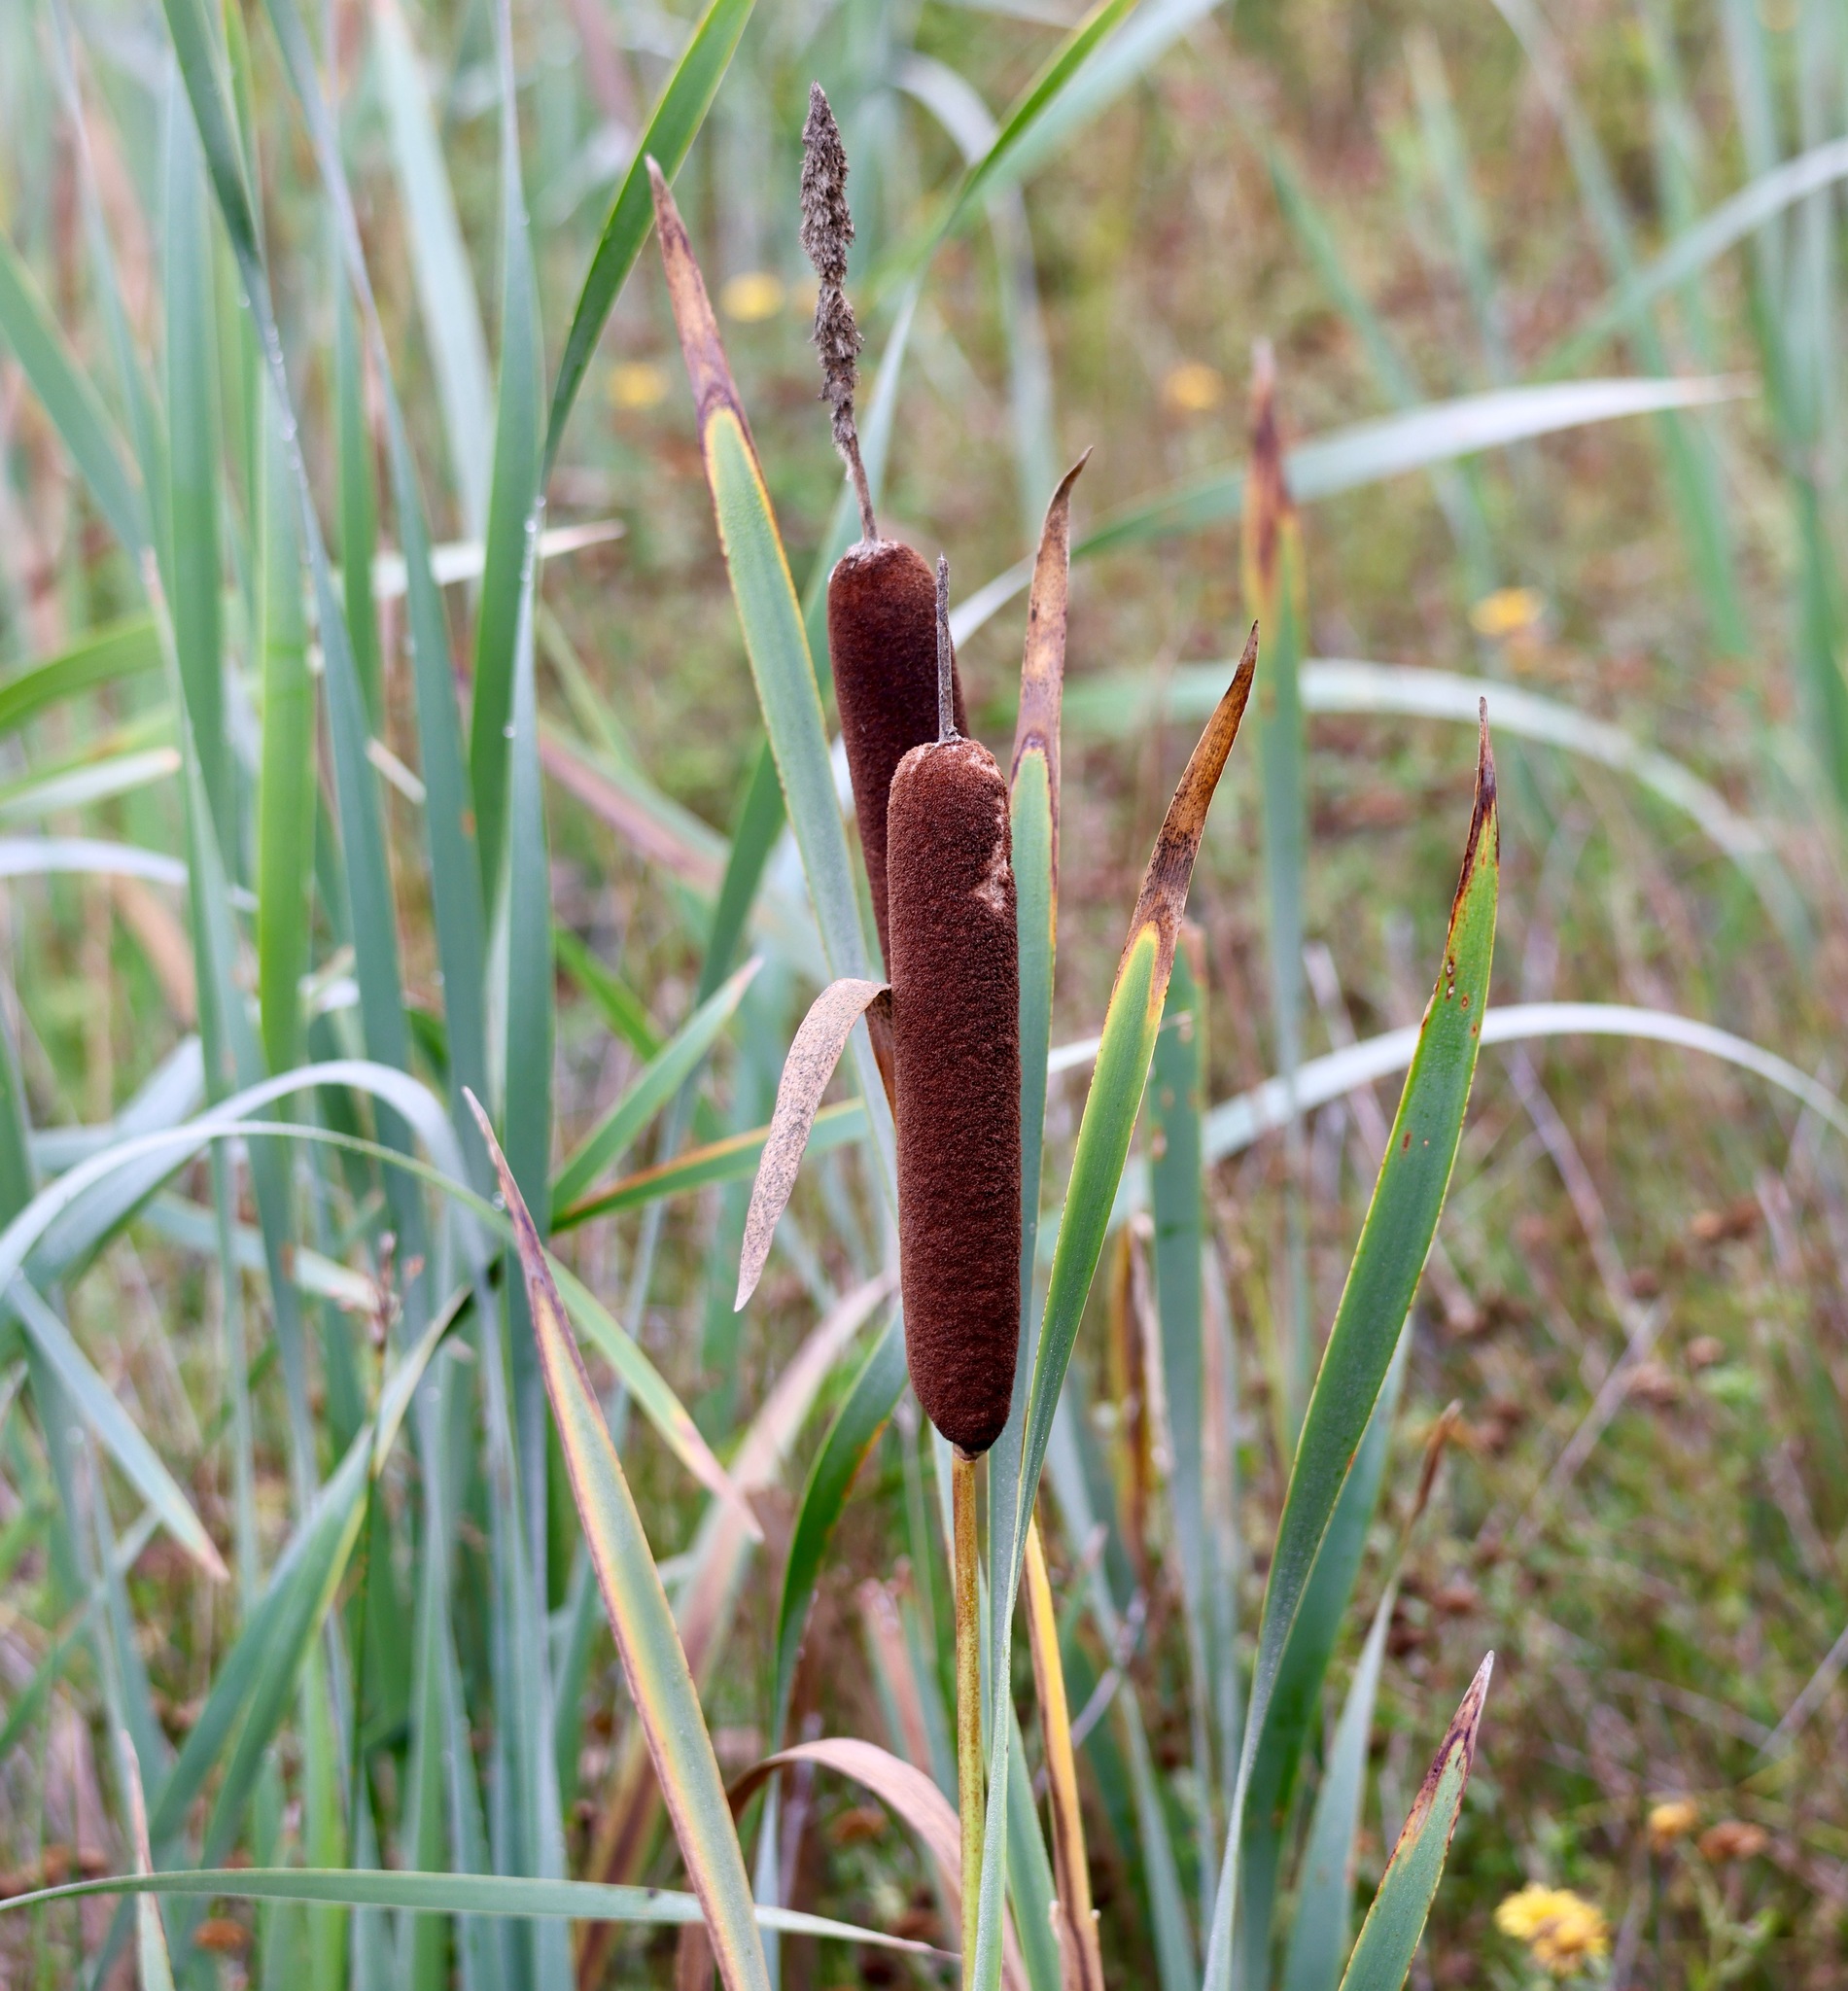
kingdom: Plantae
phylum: Tracheophyta
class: Liliopsida
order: Poales
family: Typhaceae
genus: Typha
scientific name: Typha latifolia
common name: Broadleaf cattail
